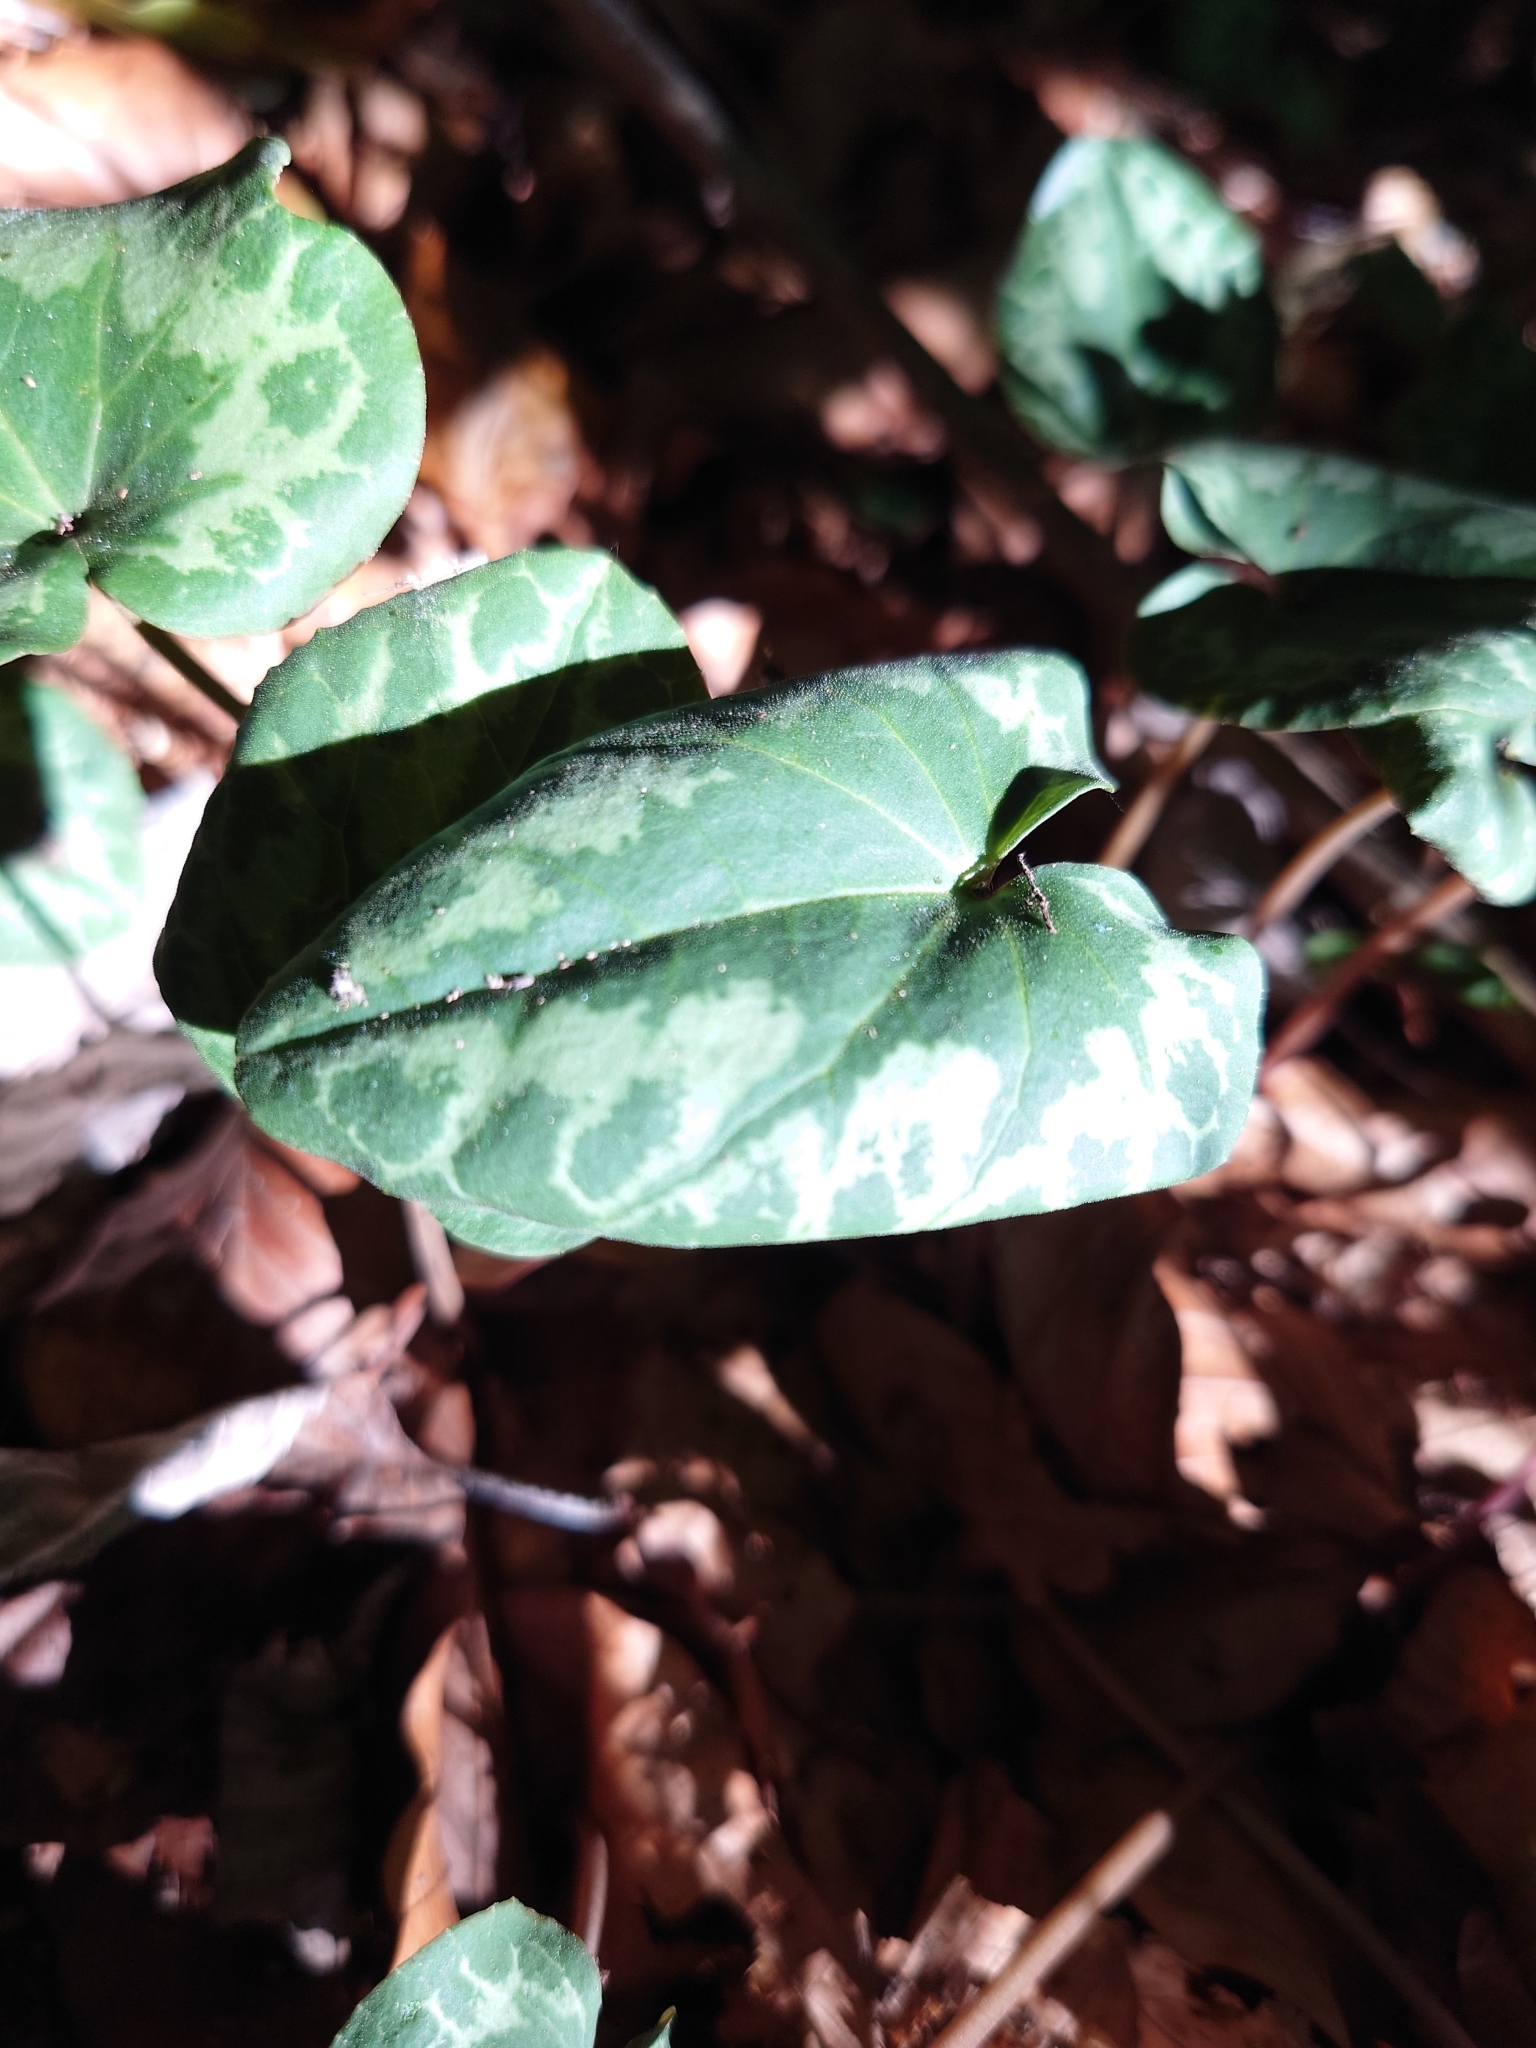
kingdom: Plantae
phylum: Tracheophyta
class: Magnoliopsida
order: Ericales
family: Primulaceae
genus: Cyclamen
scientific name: Cyclamen purpurascens
